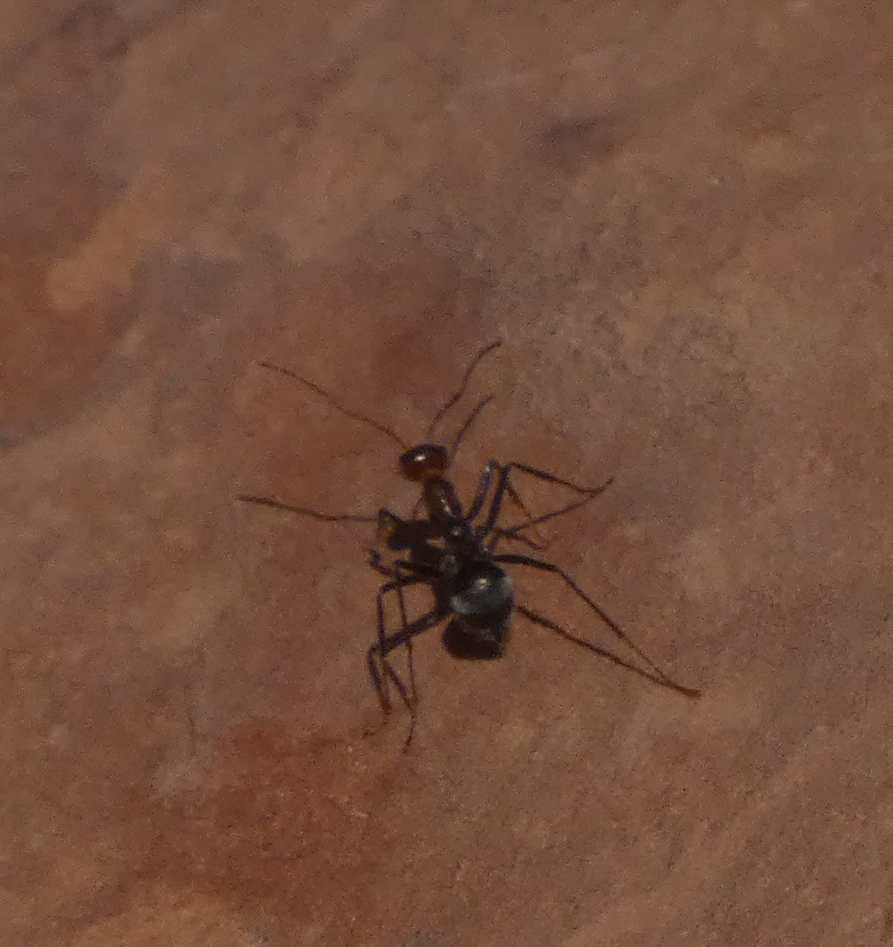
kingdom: Animalia
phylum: Arthropoda
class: Insecta
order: Hymenoptera
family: Formicidae
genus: Endiodioctes
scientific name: Endiodioctes
